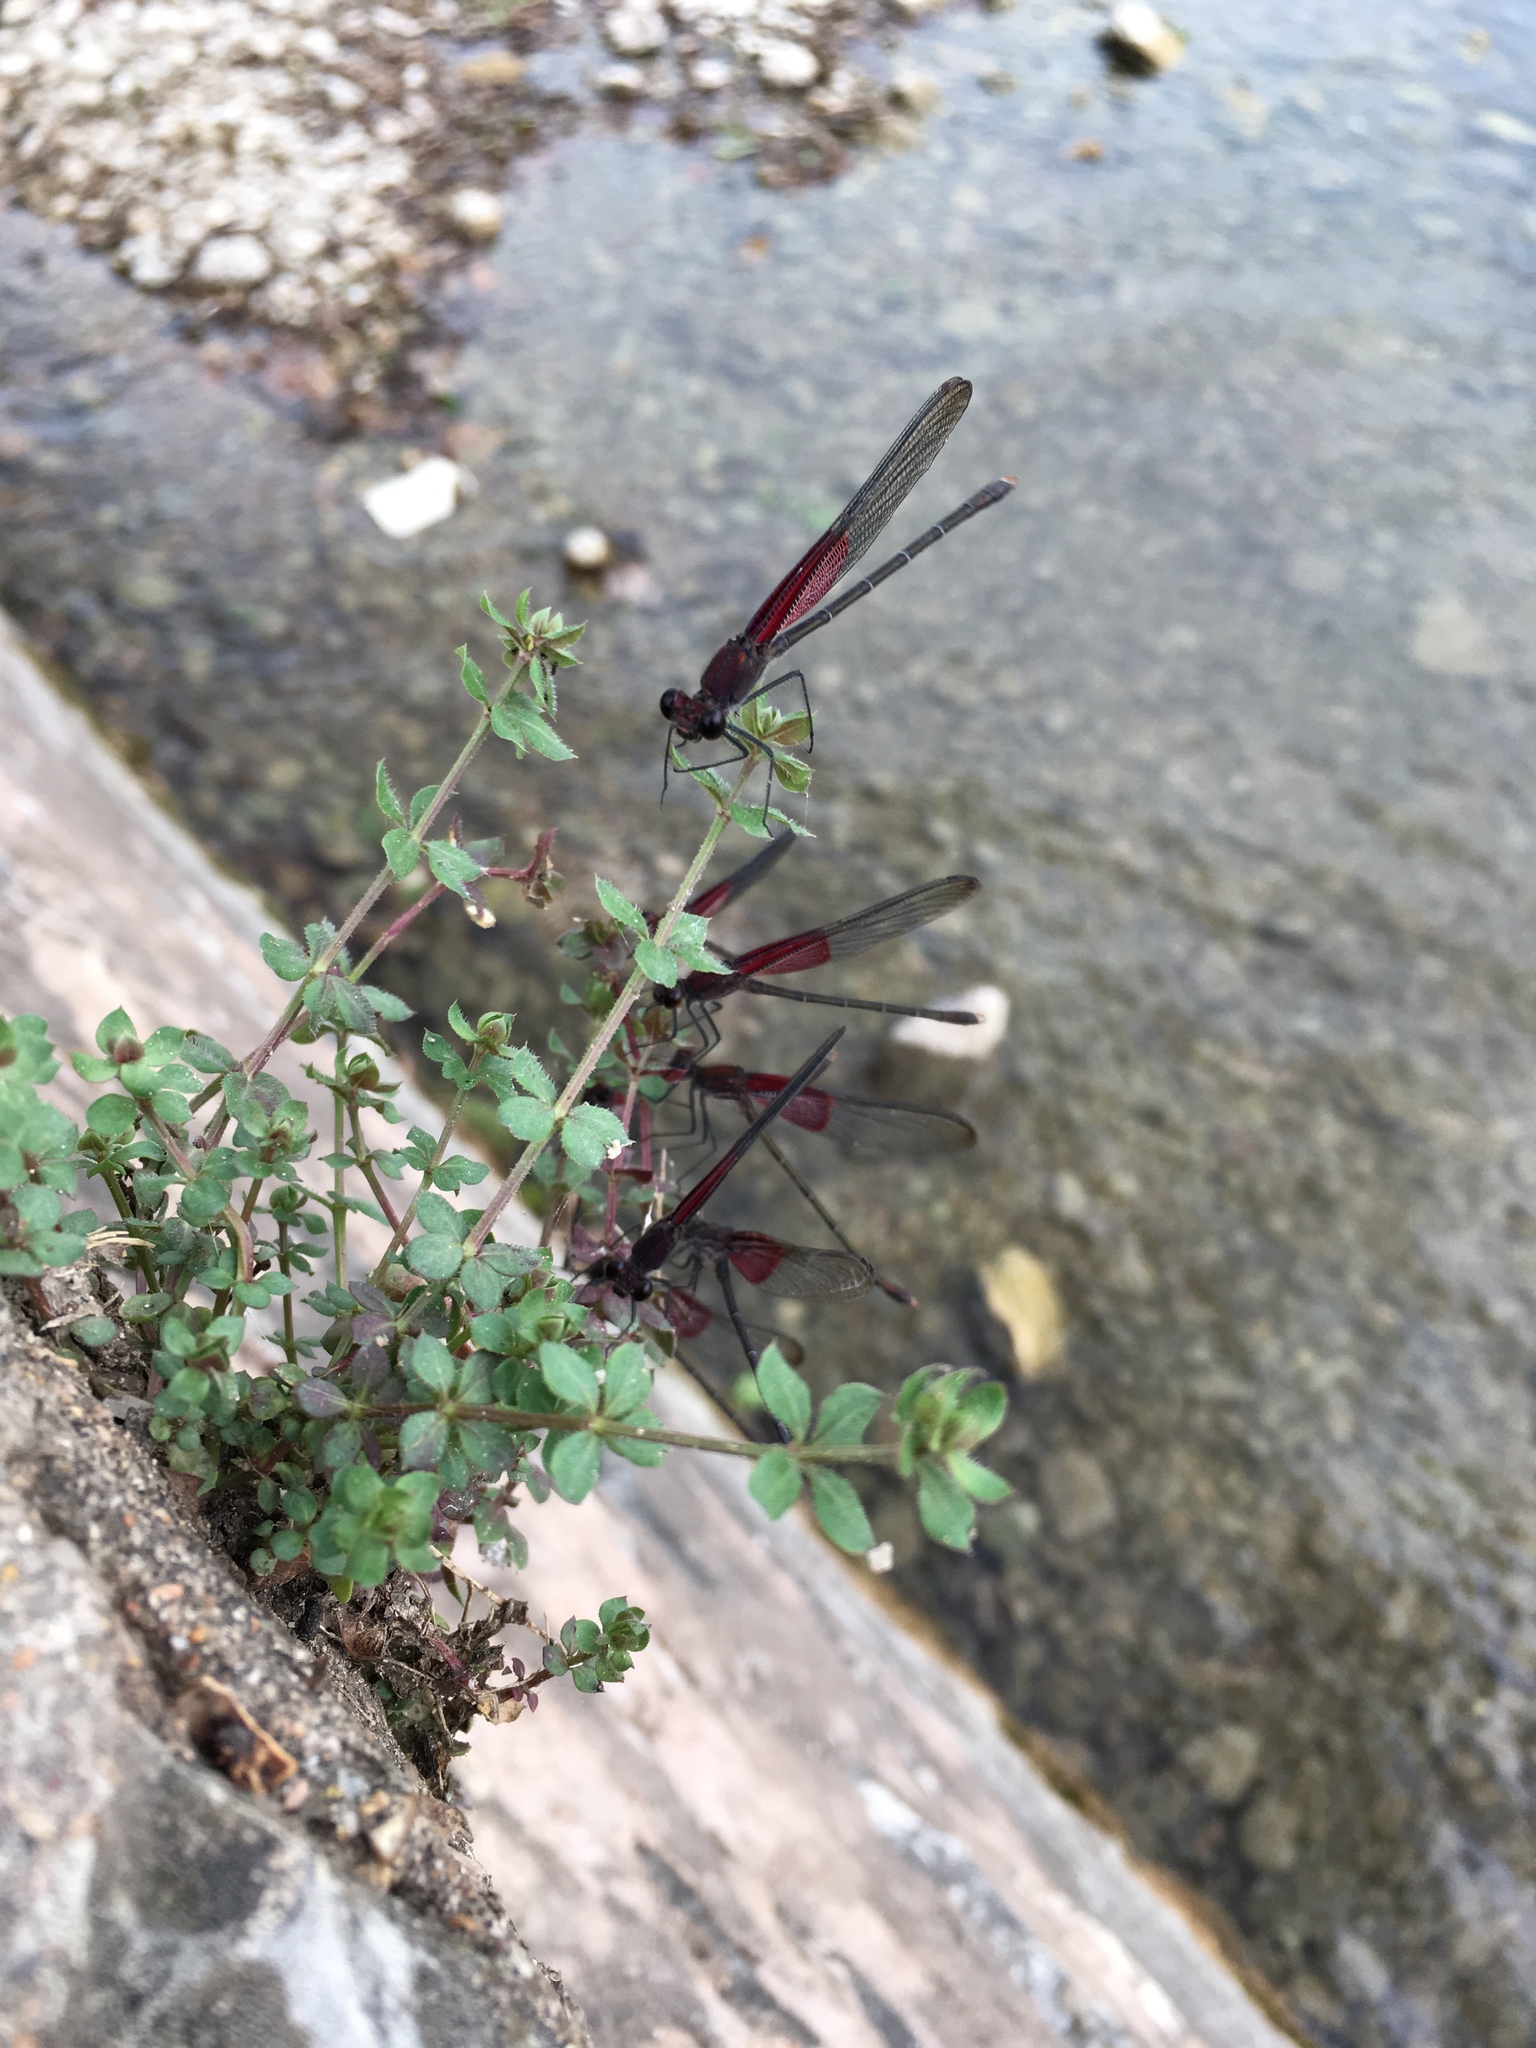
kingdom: Animalia
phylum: Arthropoda
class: Insecta
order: Odonata
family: Calopterygidae
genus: Hetaerina
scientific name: Hetaerina americana
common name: American rubyspot
